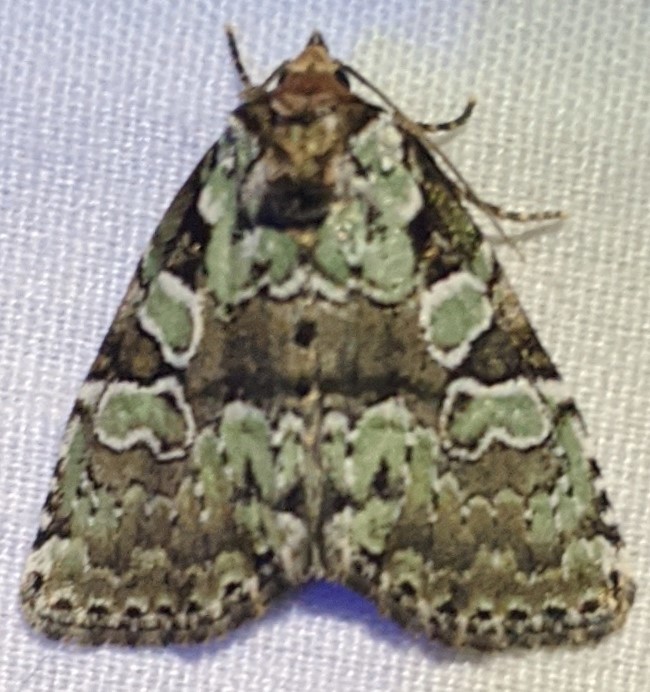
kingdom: Animalia
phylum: Arthropoda
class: Insecta
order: Lepidoptera
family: Noctuidae
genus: Leuconycta
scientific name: Leuconycta lepidula
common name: Marbled-green leuconycta moth
